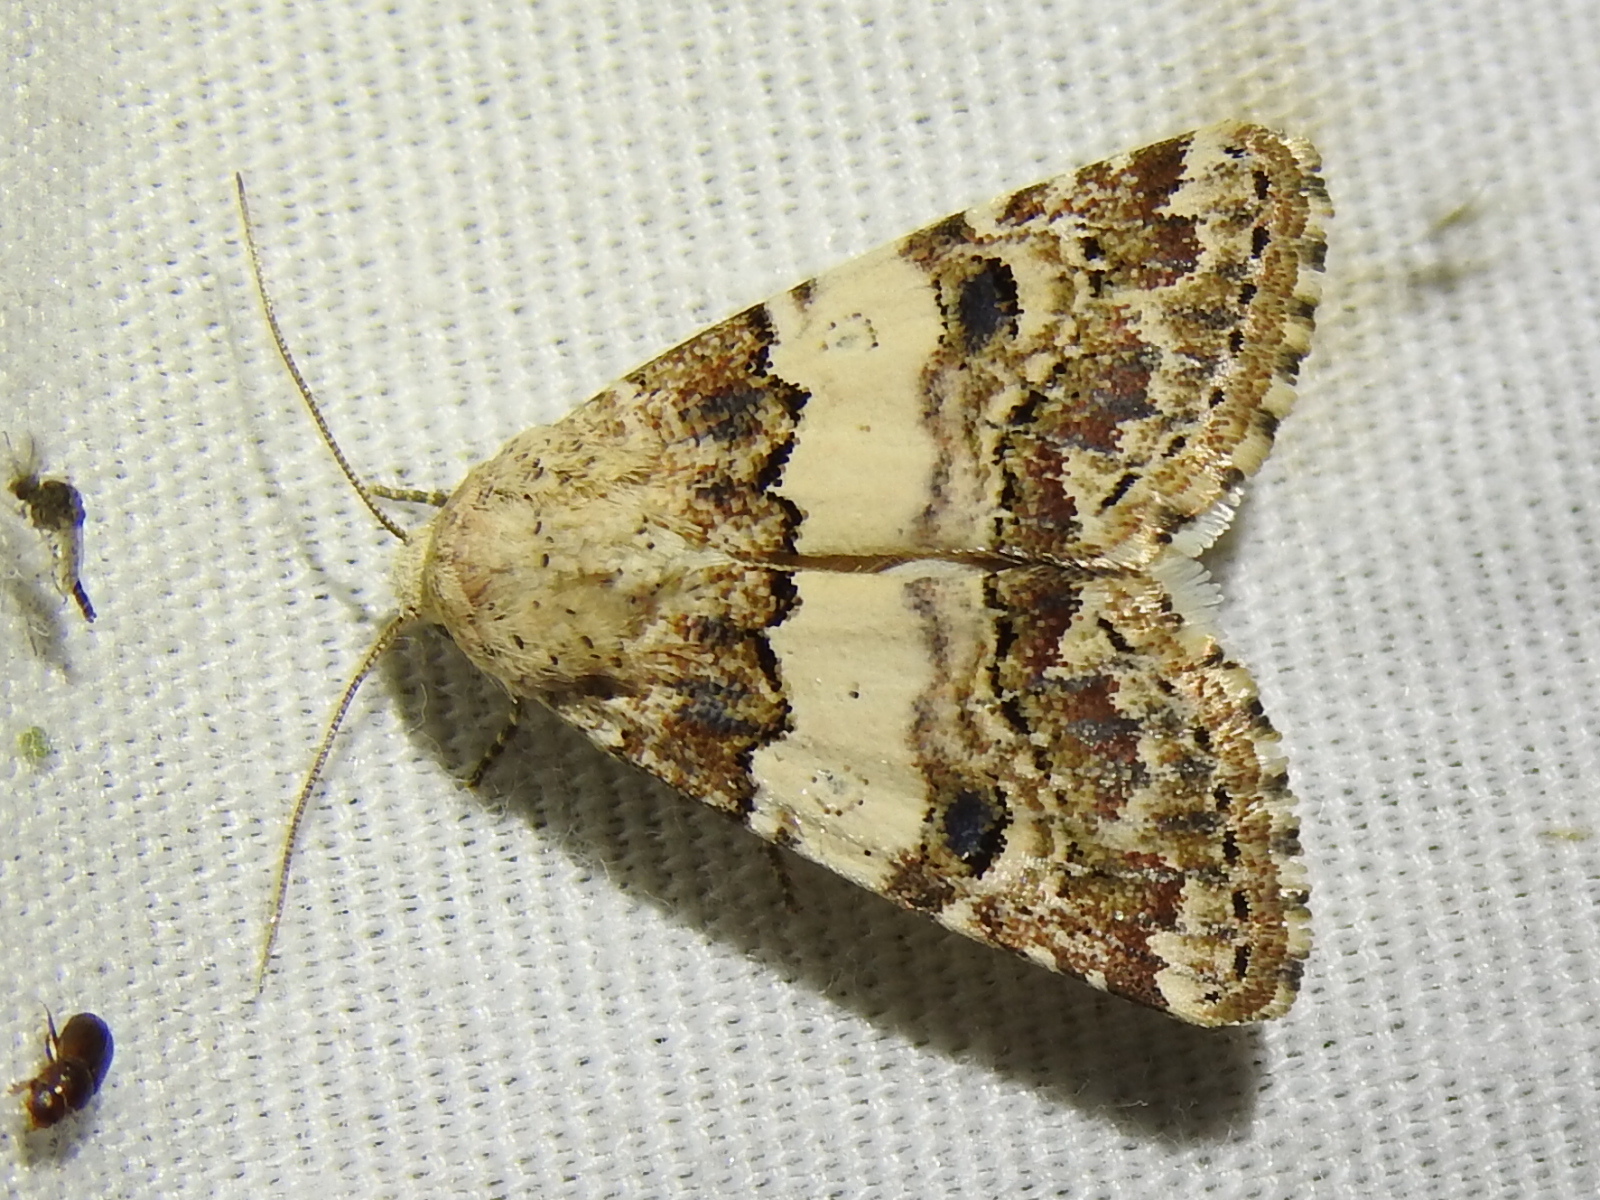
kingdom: Animalia
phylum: Arthropoda
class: Insecta
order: Lepidoptera
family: Noctuidae
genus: Schinia
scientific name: Schinia tertia
